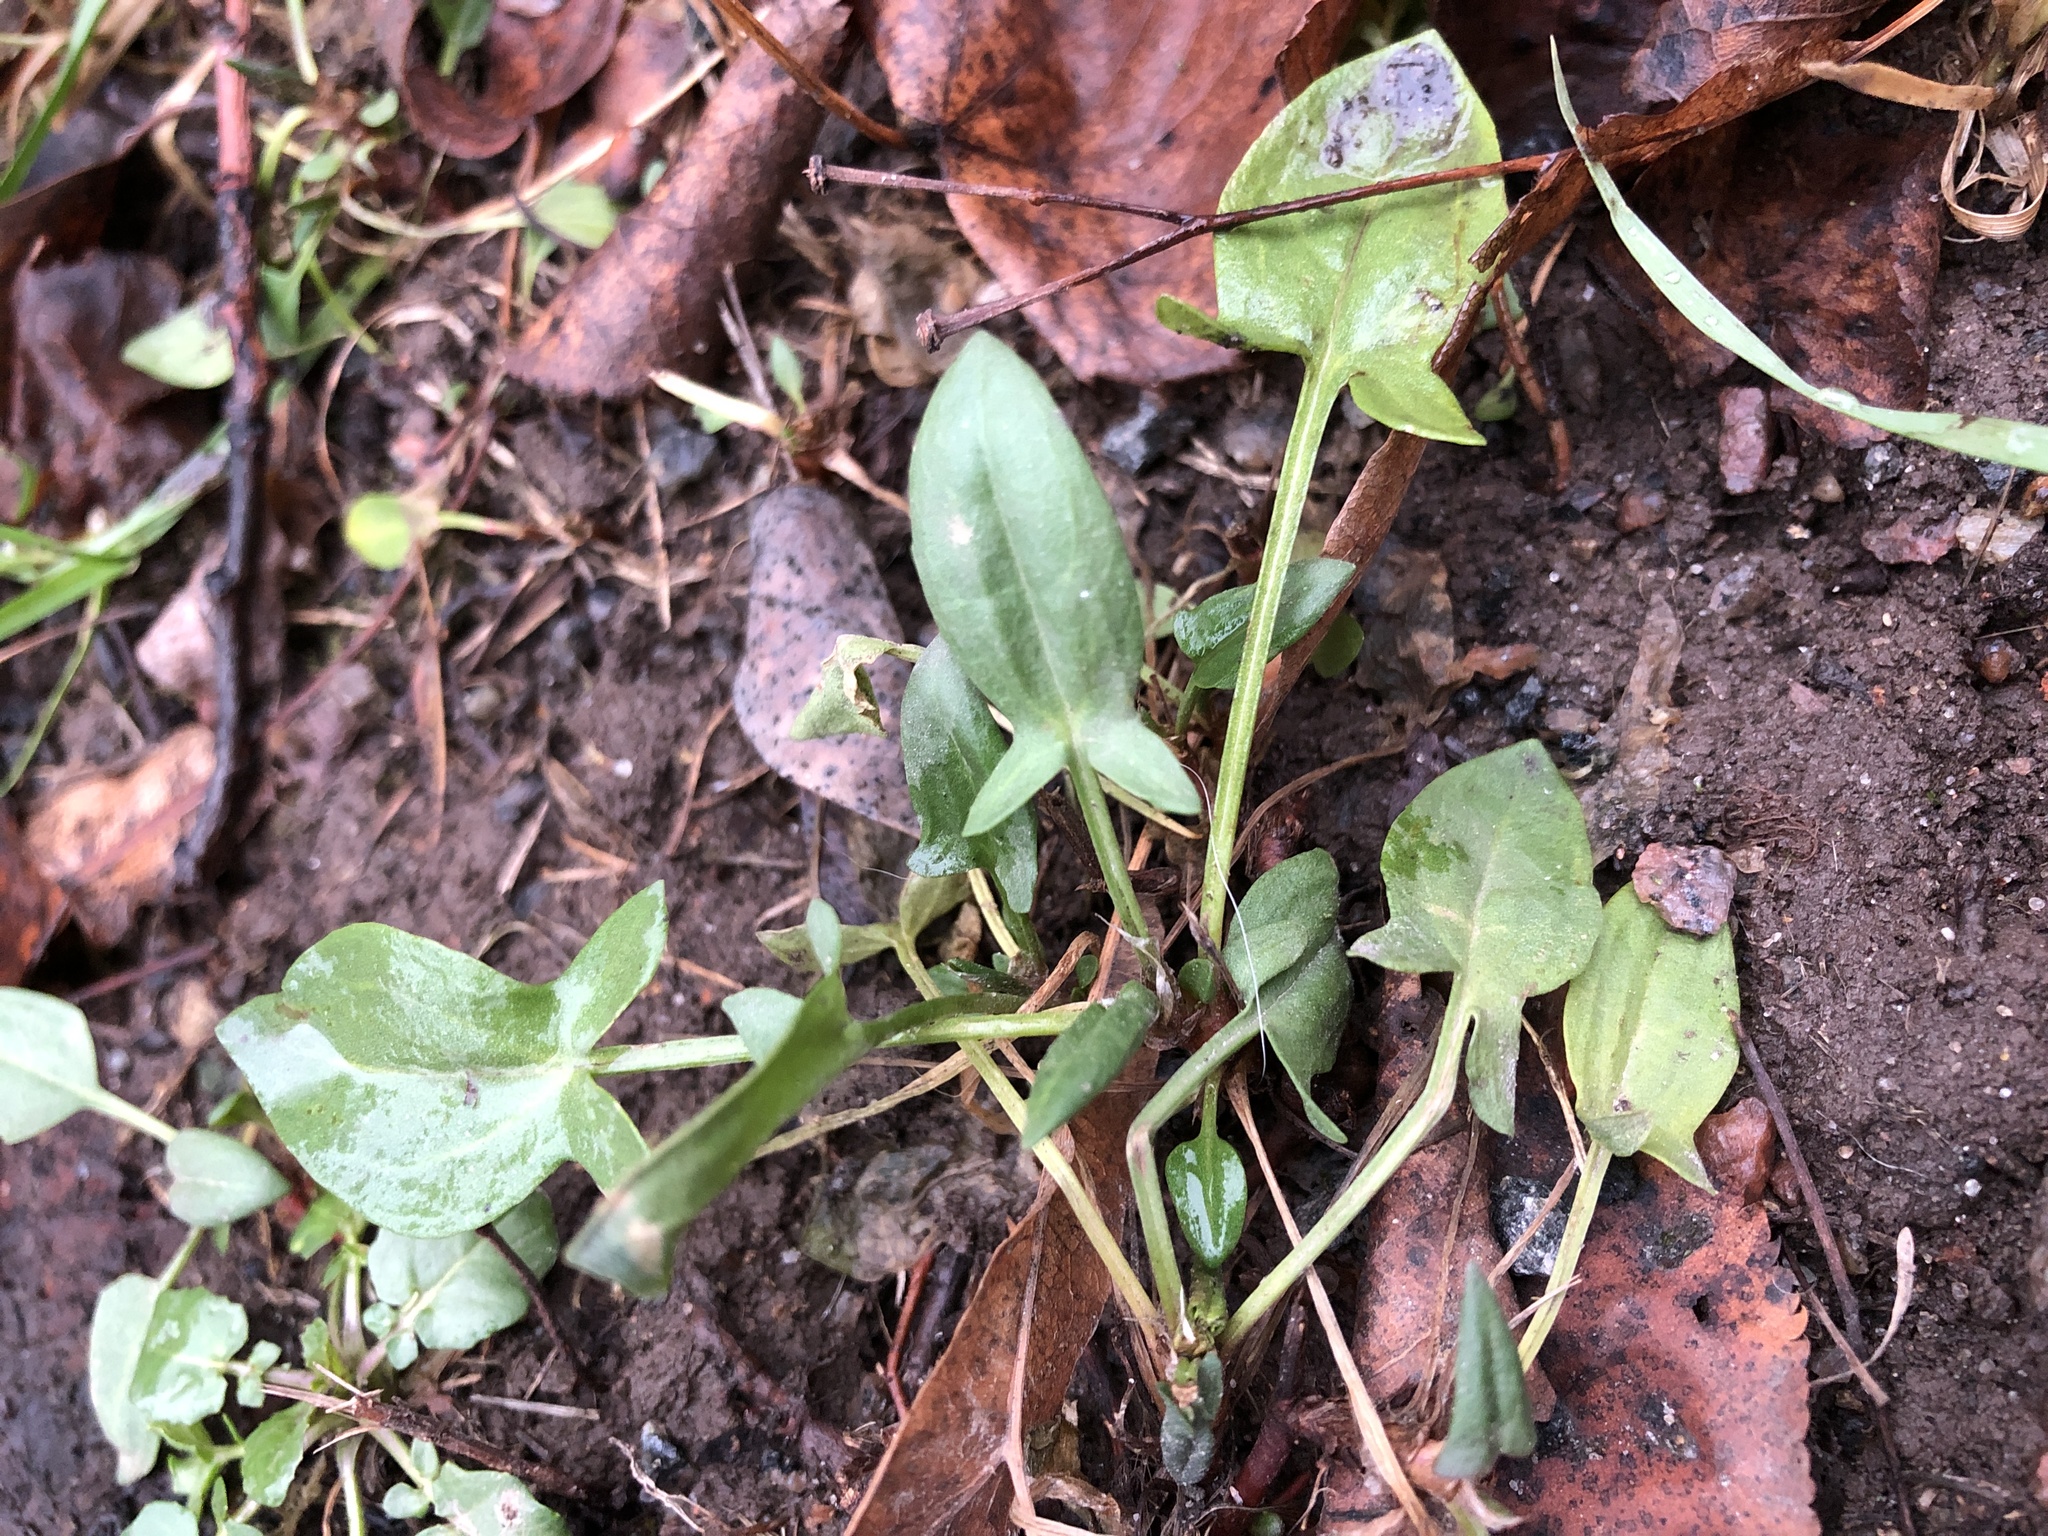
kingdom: Plantae
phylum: Tracheophyta
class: Magnoliopsida
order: Caryophyllales
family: Polygonaceae
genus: Rumex
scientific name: Rumex acetosella
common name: Common sheep sorrel
